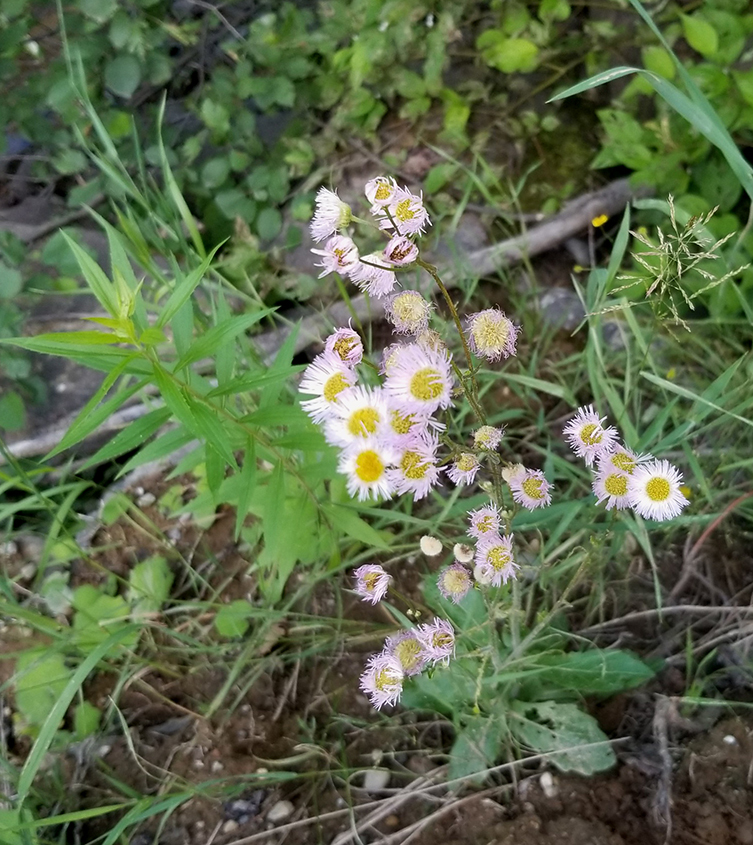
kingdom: Plantae
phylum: Tracheophyta
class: Magnoliopsida
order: Asterales
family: Asteraceae
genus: Erigeron
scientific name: Erigeron philadelphicus
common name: Robin's-plantain
